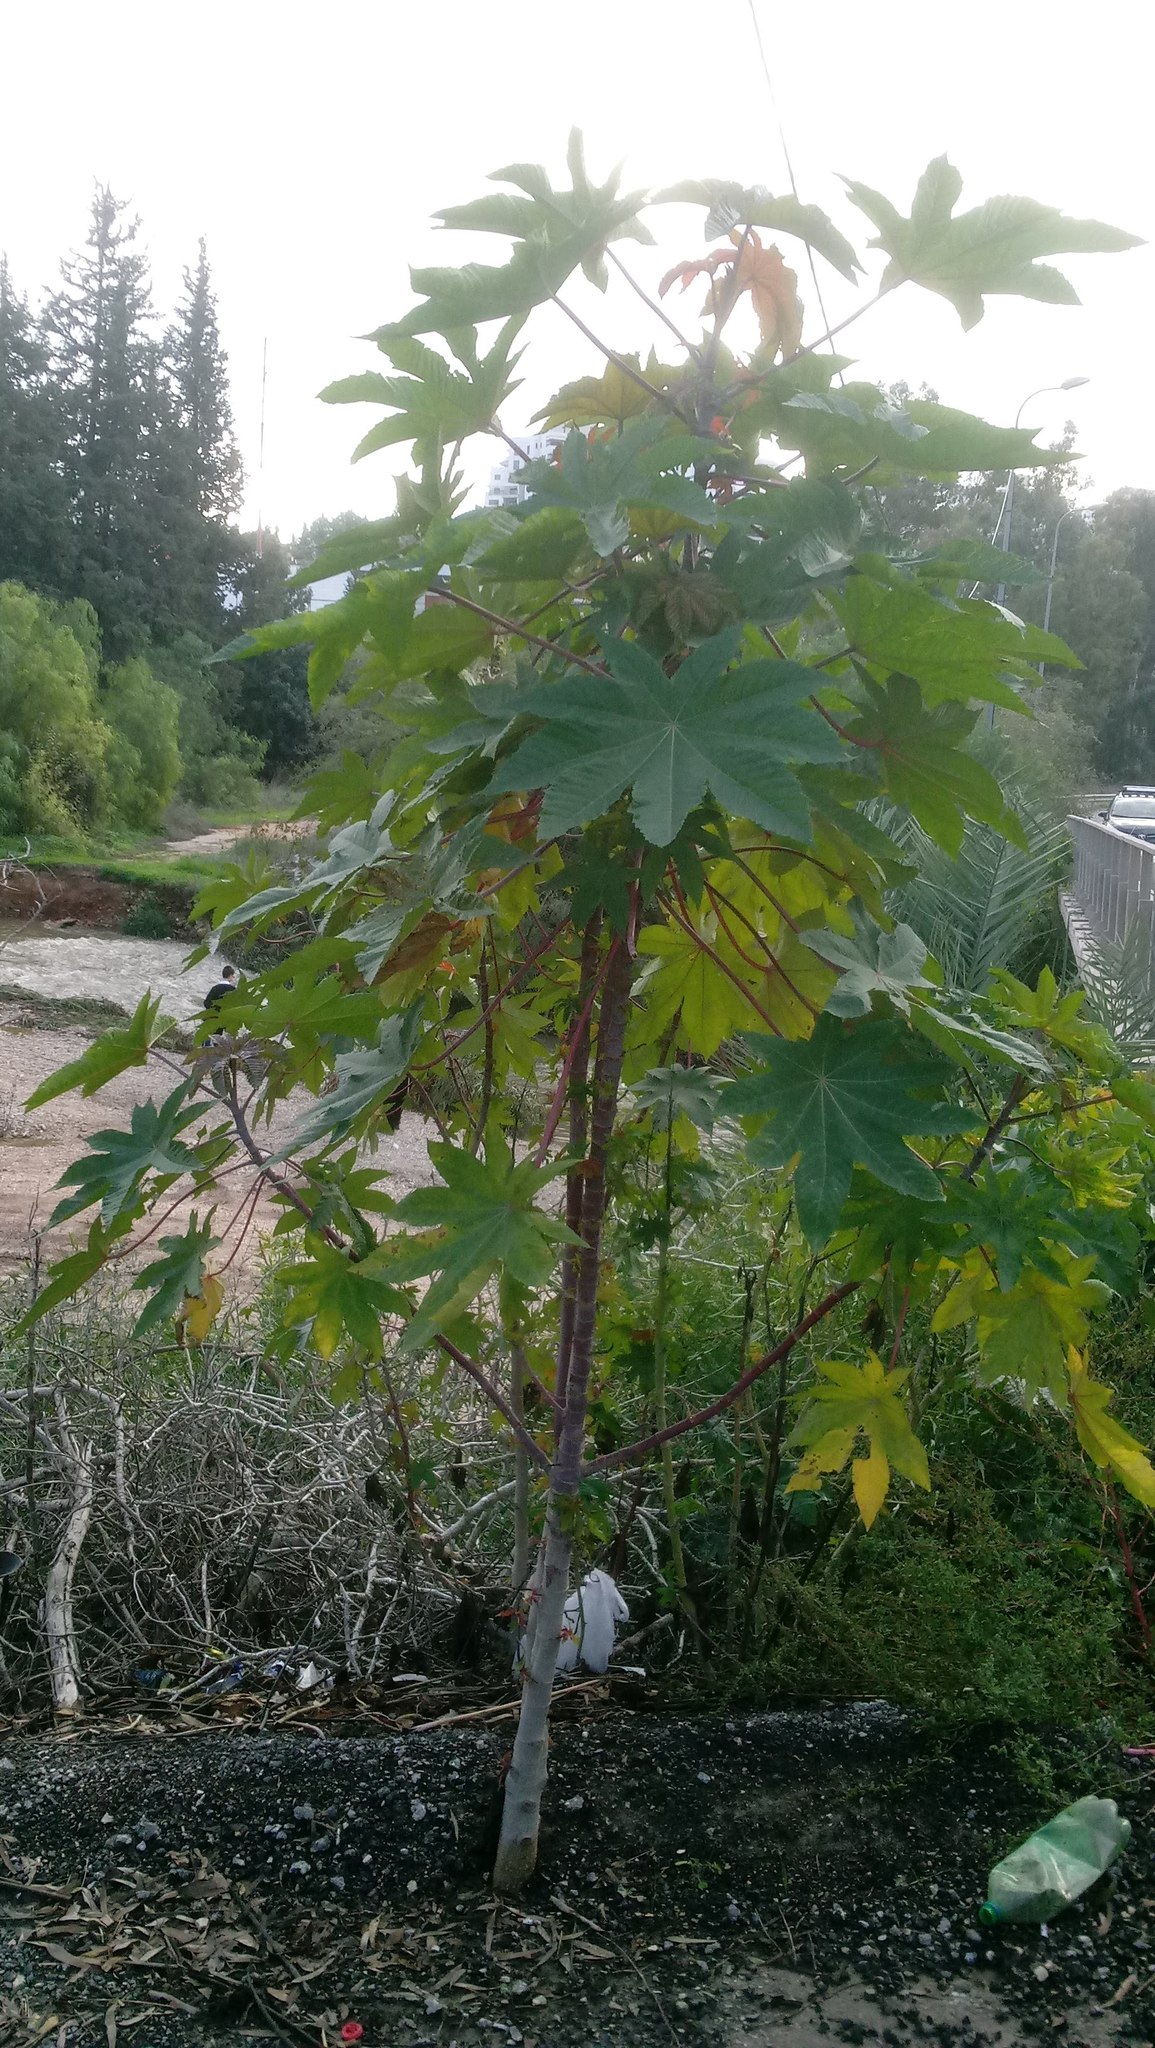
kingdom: Plantae
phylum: Tracheophyta
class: Magnoliopsida
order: Malpighiales
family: Euphorbiaceae
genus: Ricinus
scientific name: Ricinus communis
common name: Castor-oil-plant
